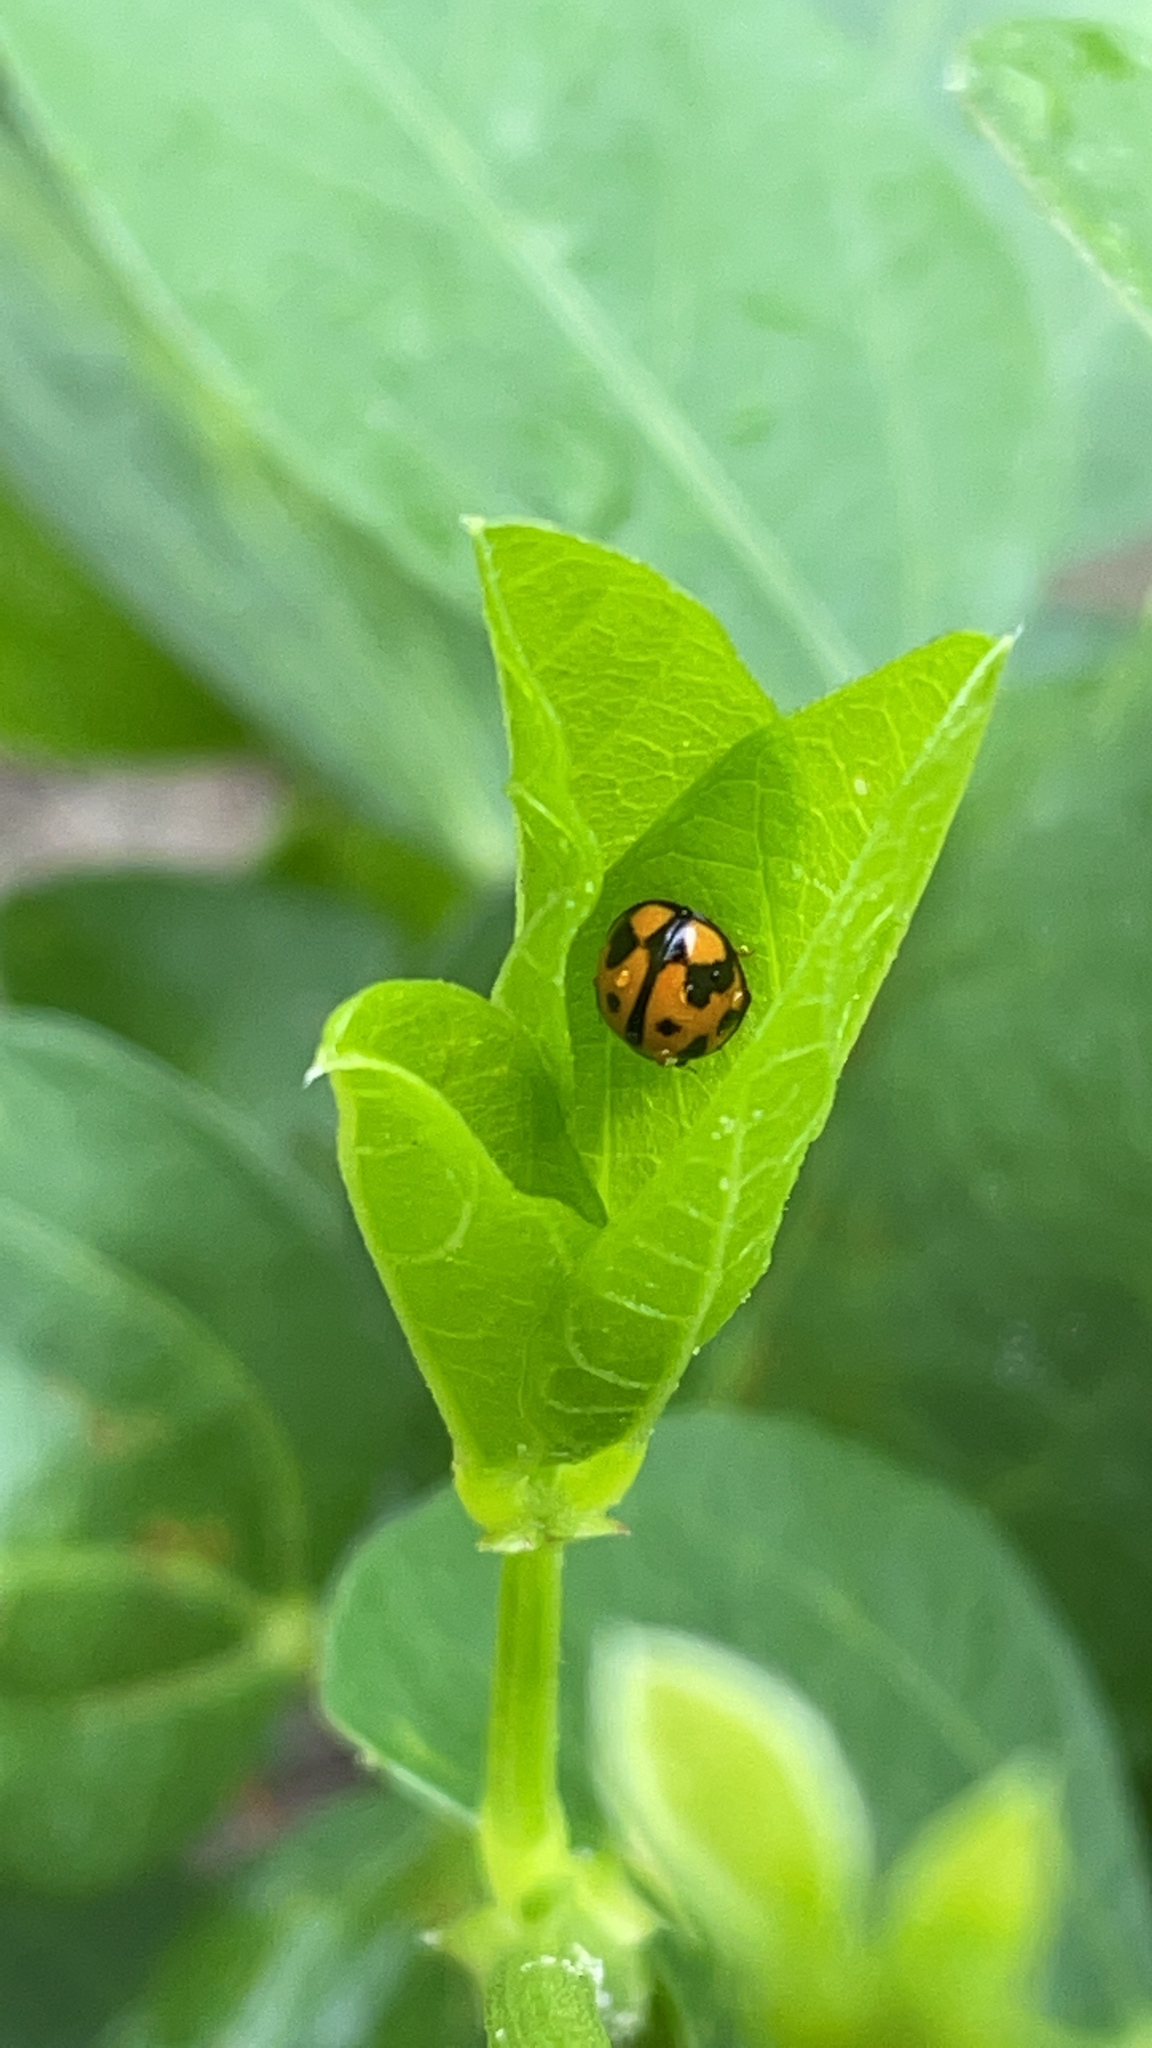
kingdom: Animalia
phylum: Arthropoda
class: Insecta
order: Coleoptera
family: Coccinellidae
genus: Coelophora
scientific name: Coelophora inaequalis
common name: Common australian lady beetle
